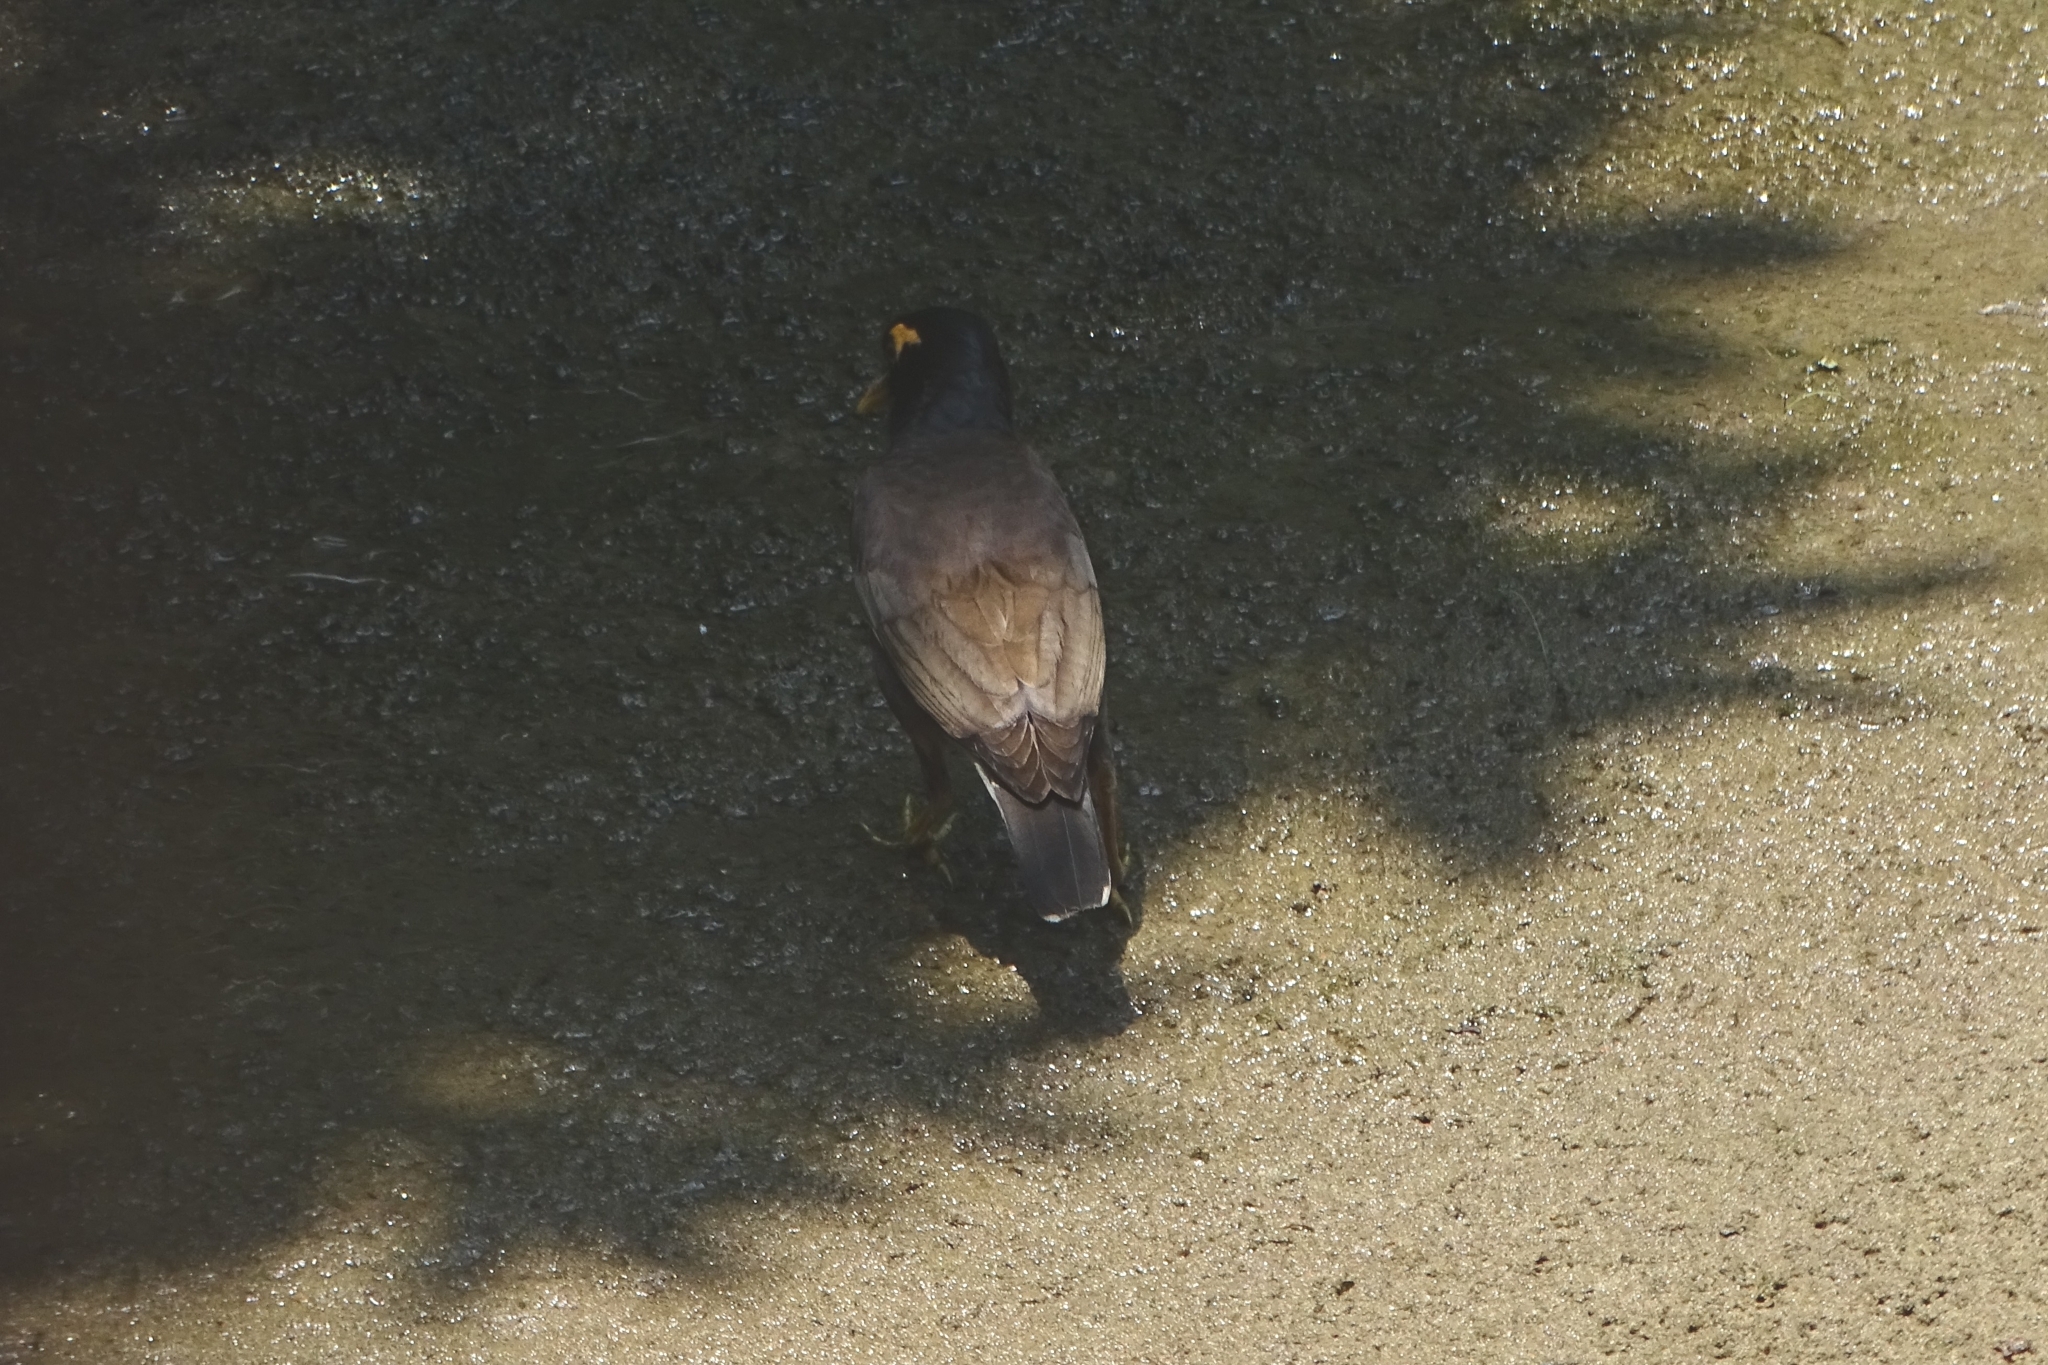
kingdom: Animalia
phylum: Chordata
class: Aves
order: Passeriformes
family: Sturnidae
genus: Acridotheres
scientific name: Acridotheres tristis
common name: Common myna
